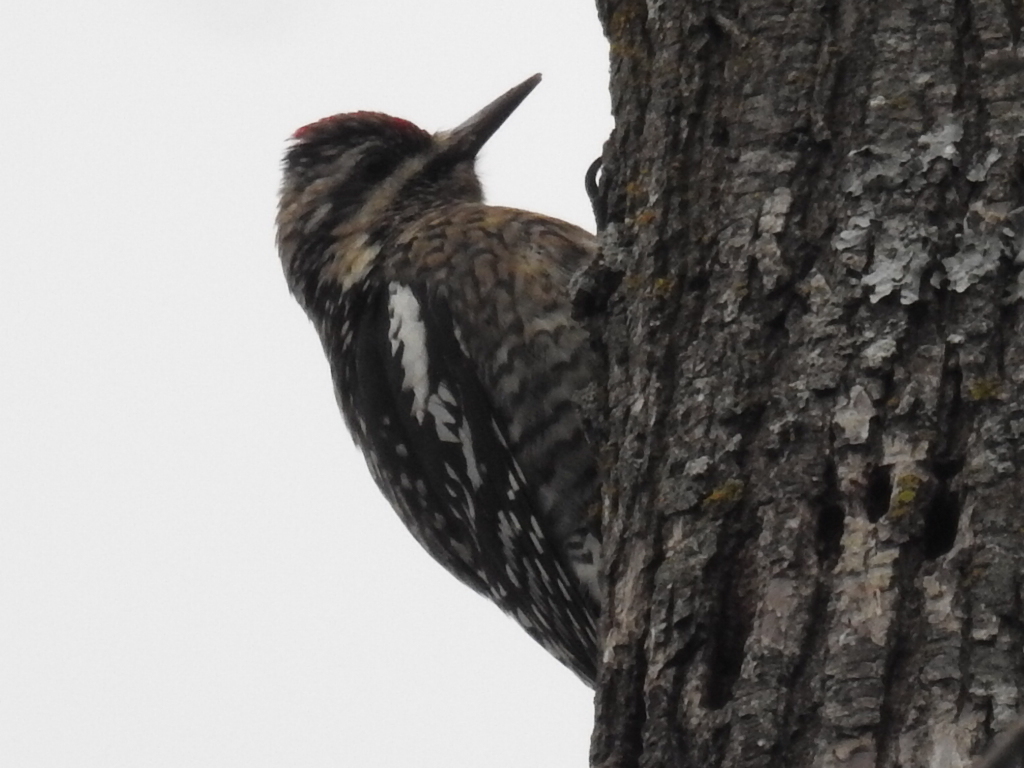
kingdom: Animalia
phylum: Chordata
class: Aves
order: Piciformes
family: Picidae
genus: Sphyrapicus
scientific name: Sphyrapicus varius
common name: Yellow-bellied sapsucker
